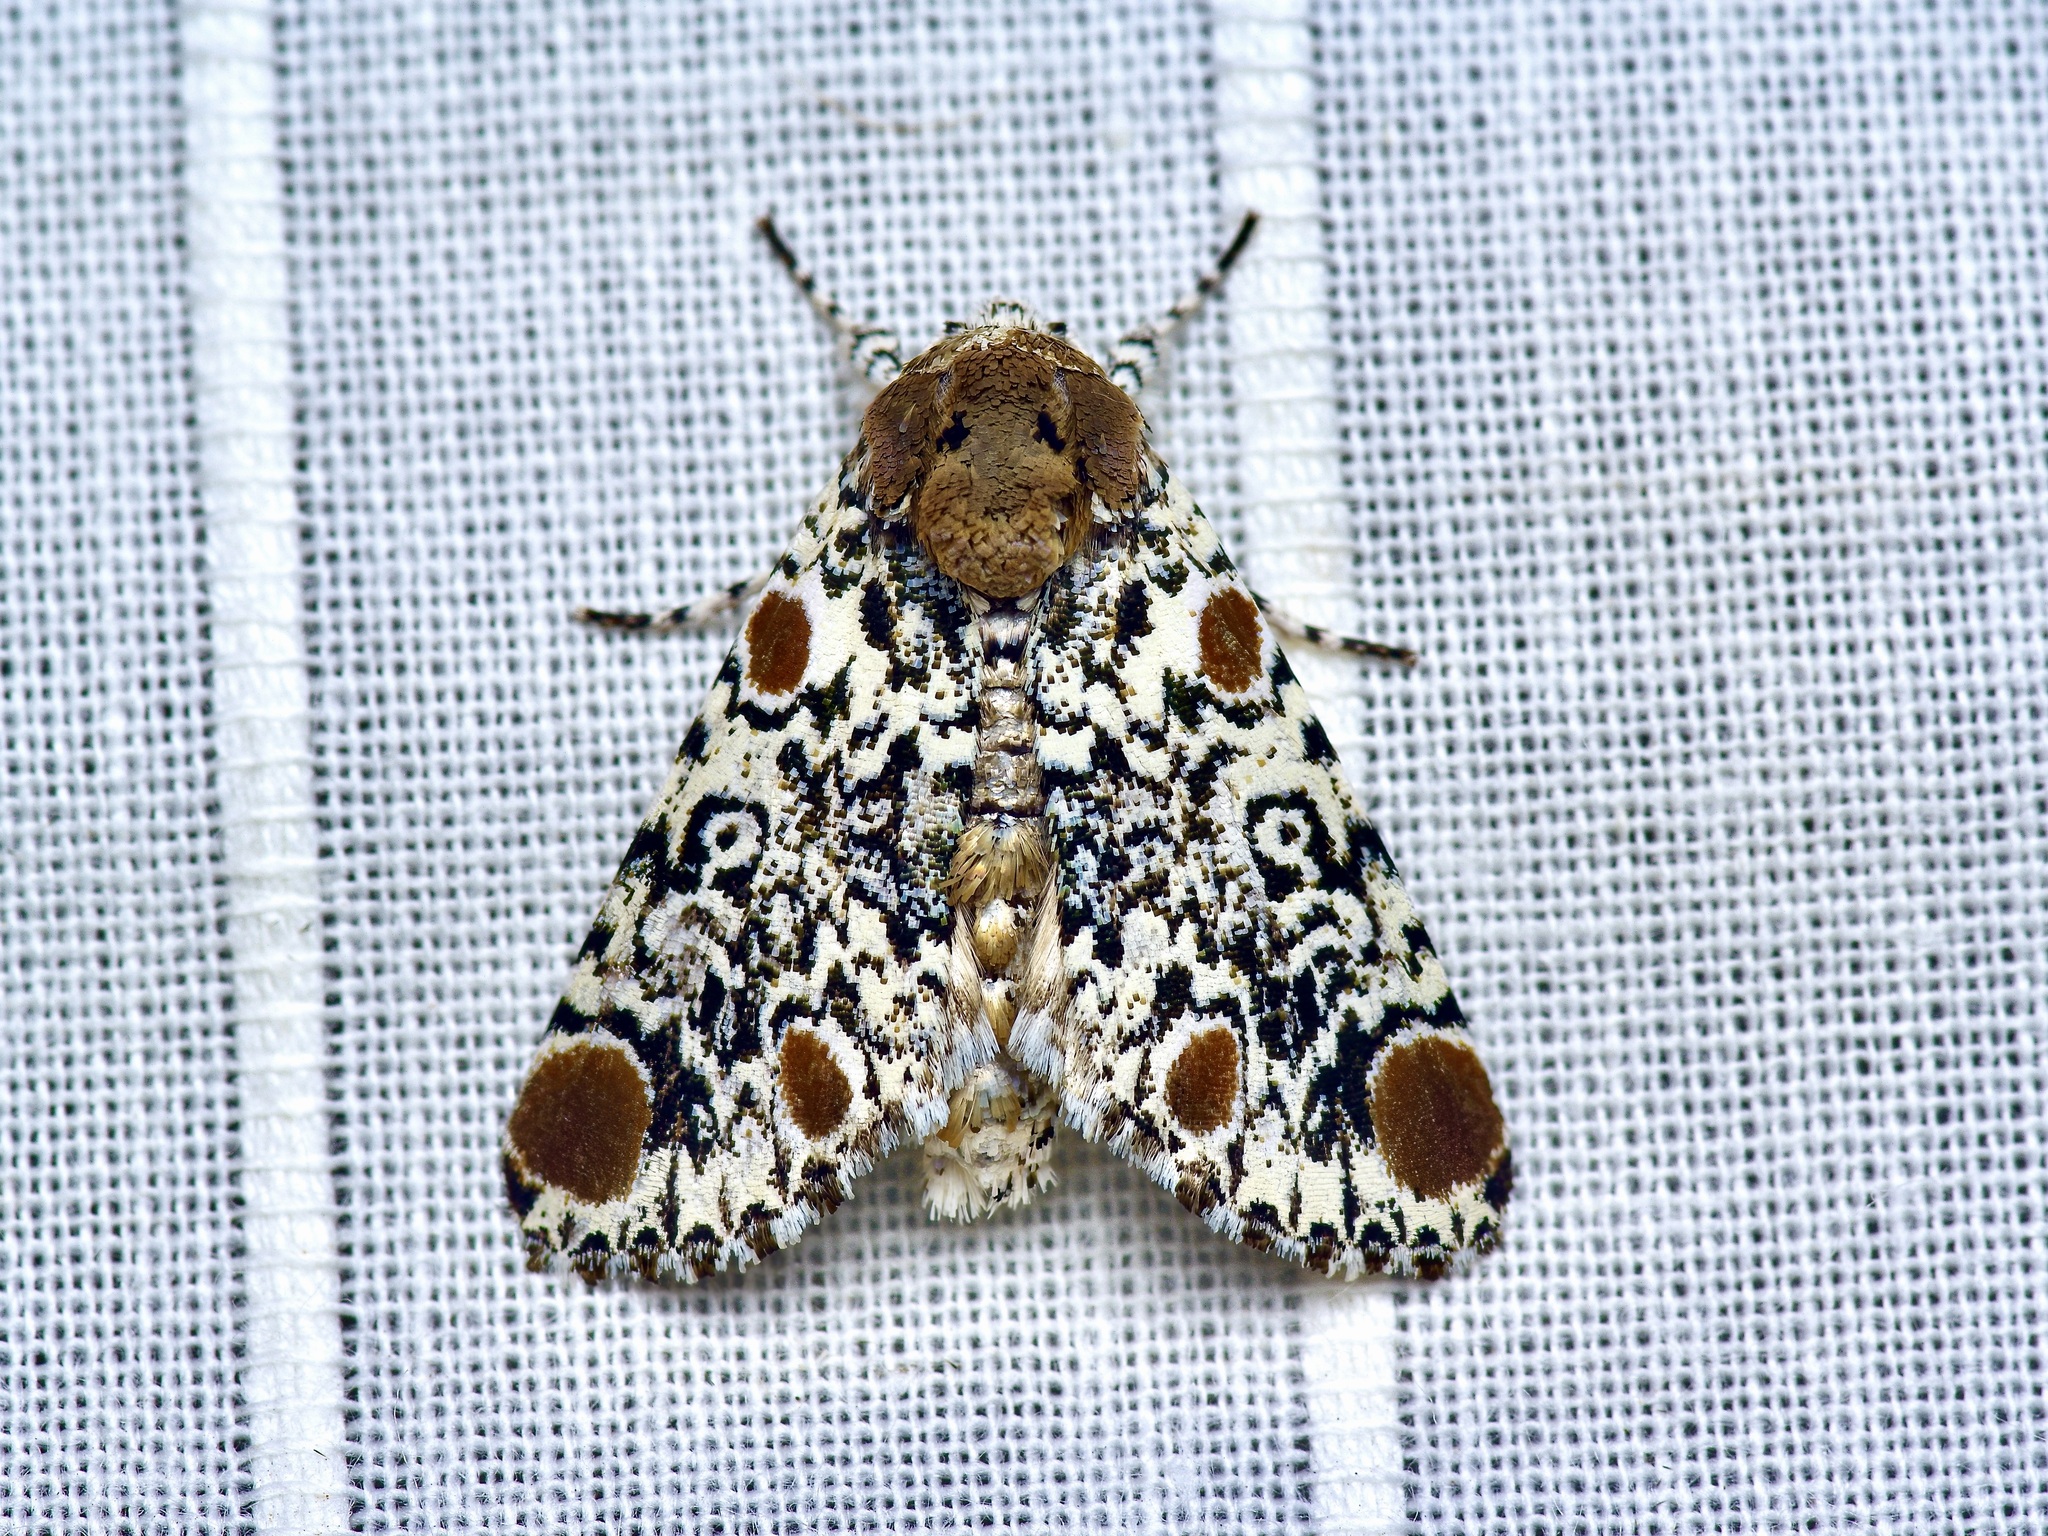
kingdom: Animalia
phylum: Arthropoda
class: Insecta
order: Lepidoptera
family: Noctuidae
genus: Harrisimemna
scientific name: Harrisimemna trisignata
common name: Harris threespot
